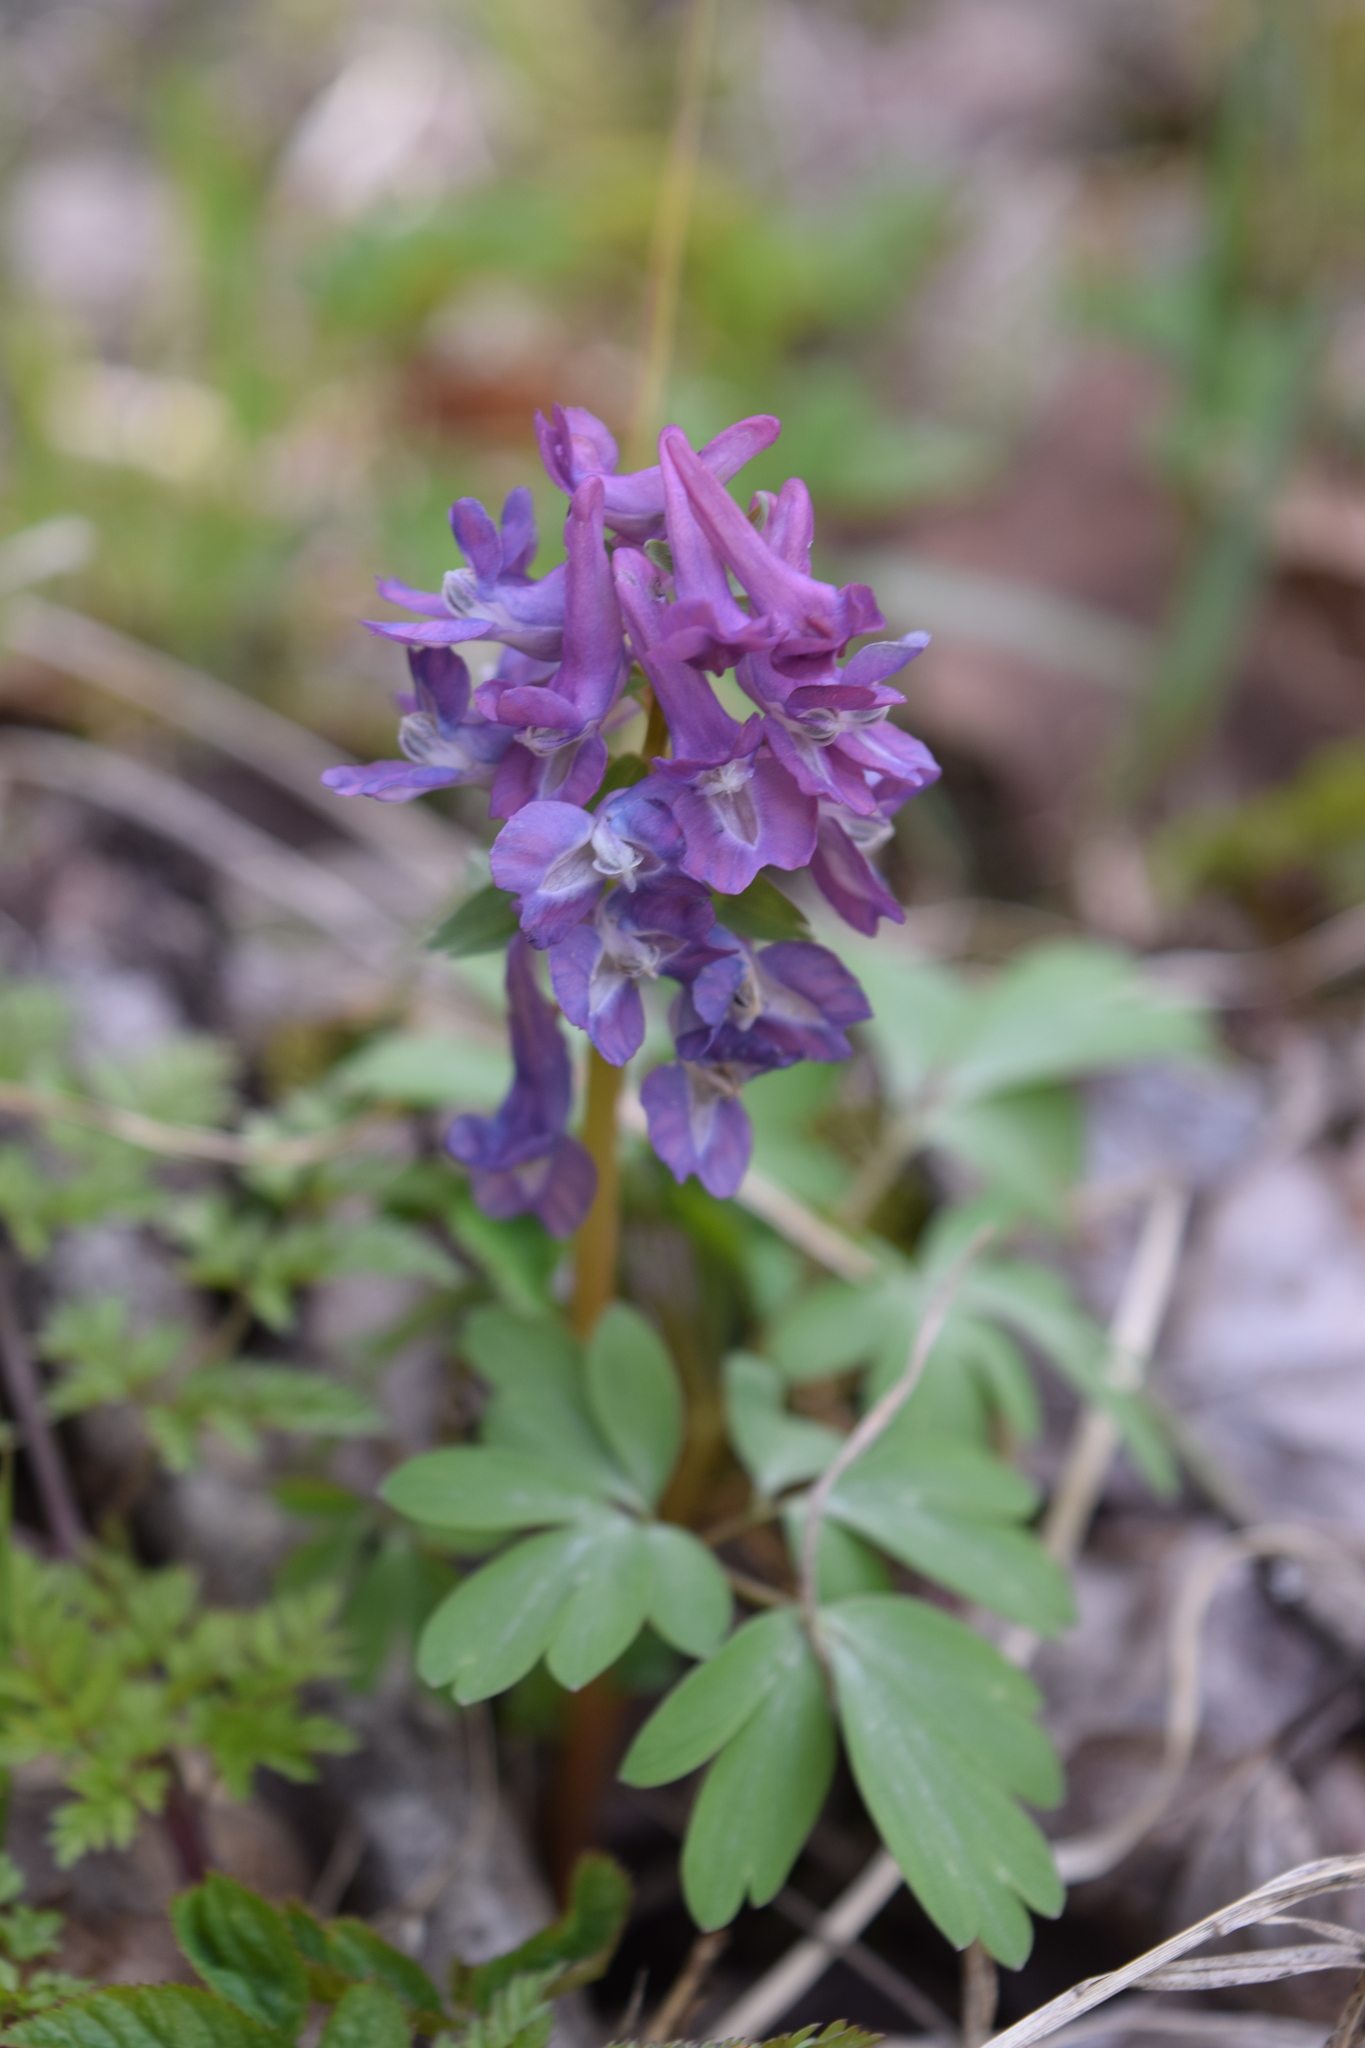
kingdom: Plantae
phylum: Tracheophyta
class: Magnoliopsida
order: Ranunculales
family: Papaveraceae
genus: Corydalis
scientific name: Corydalis solida
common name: Bird-in-a-bush
